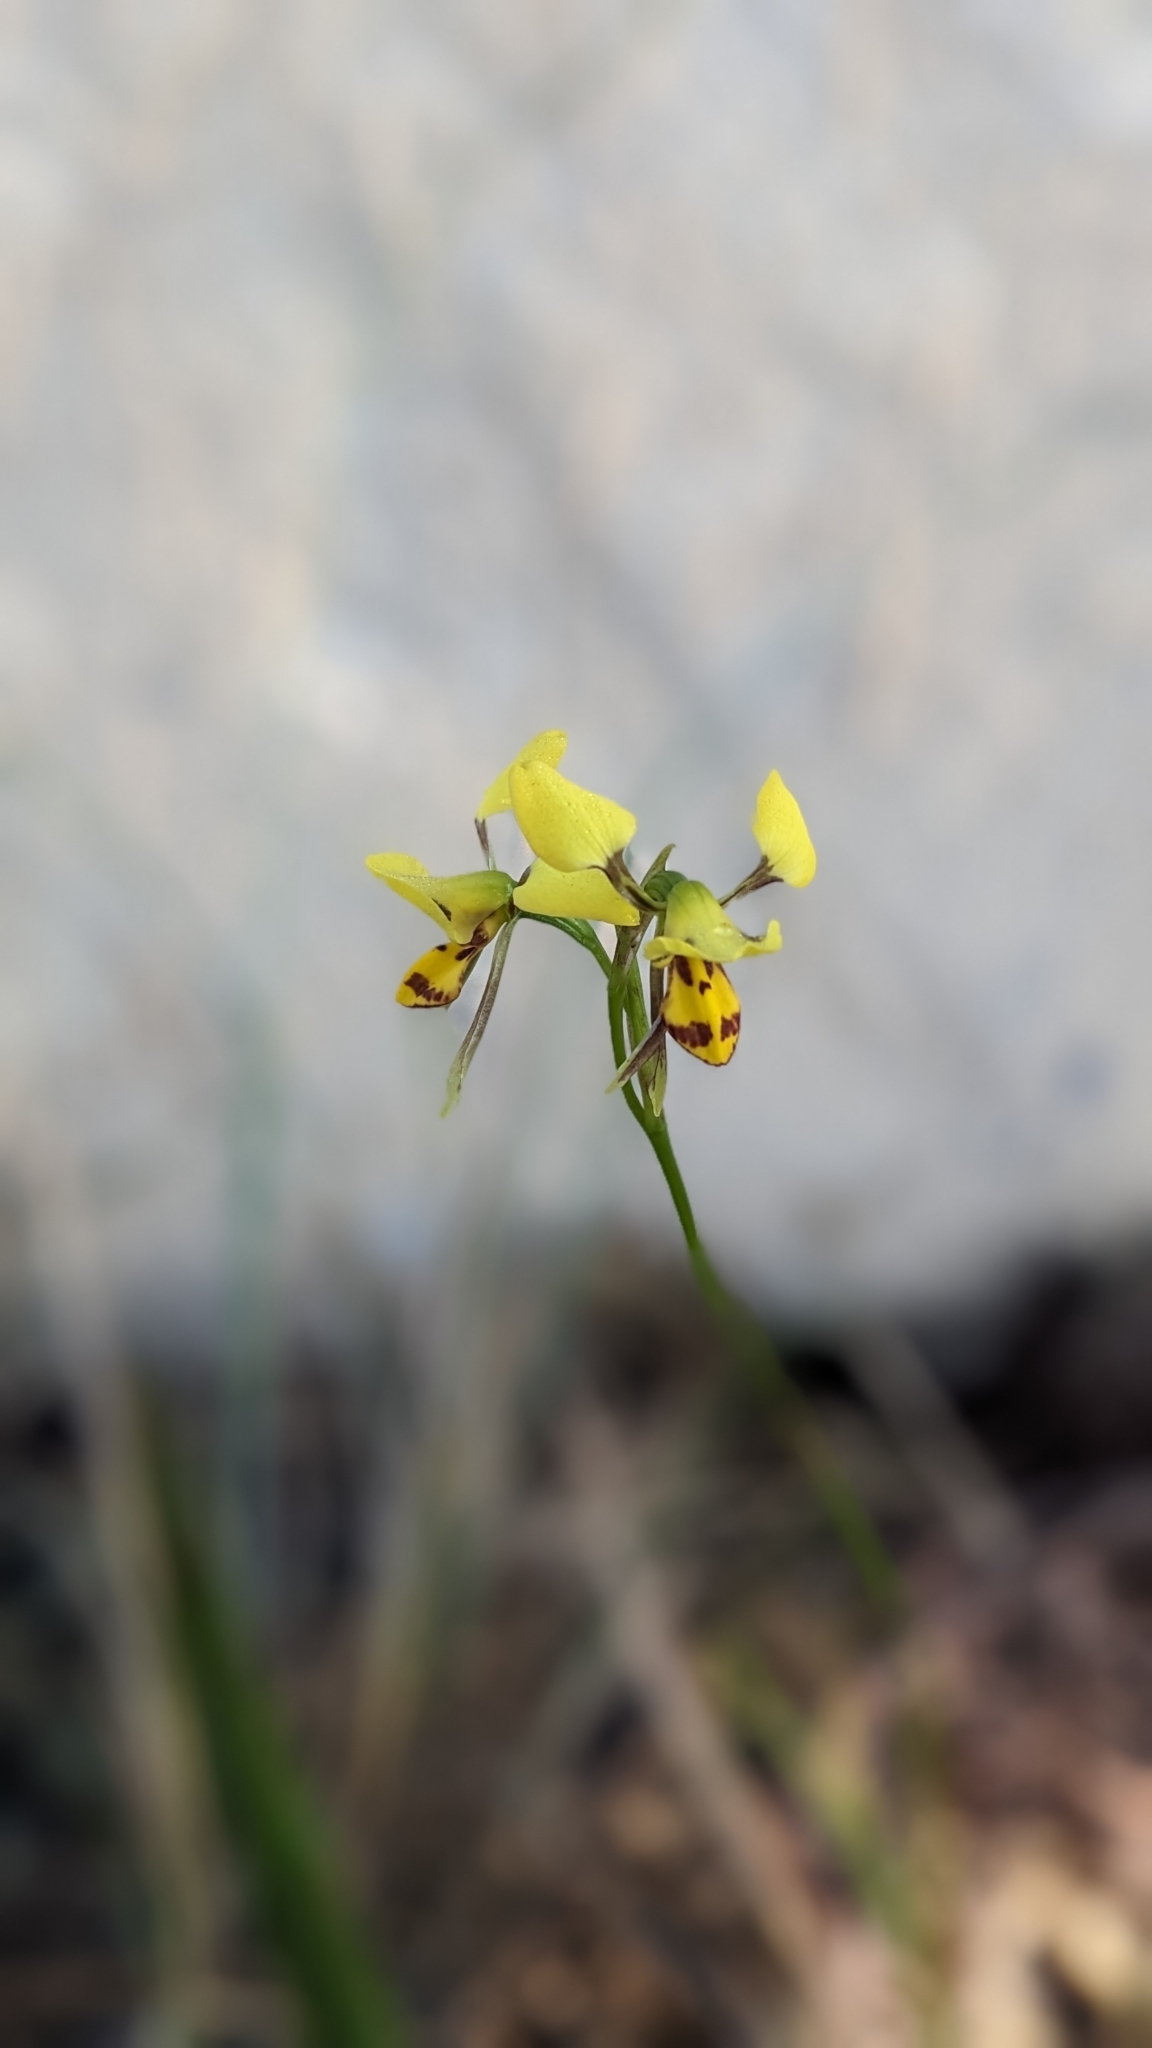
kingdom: Plantae
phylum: Tracheophyta
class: Liliopsida
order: Asparagales
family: Orchidaceae
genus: Diuris
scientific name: Diuris sulphurea
